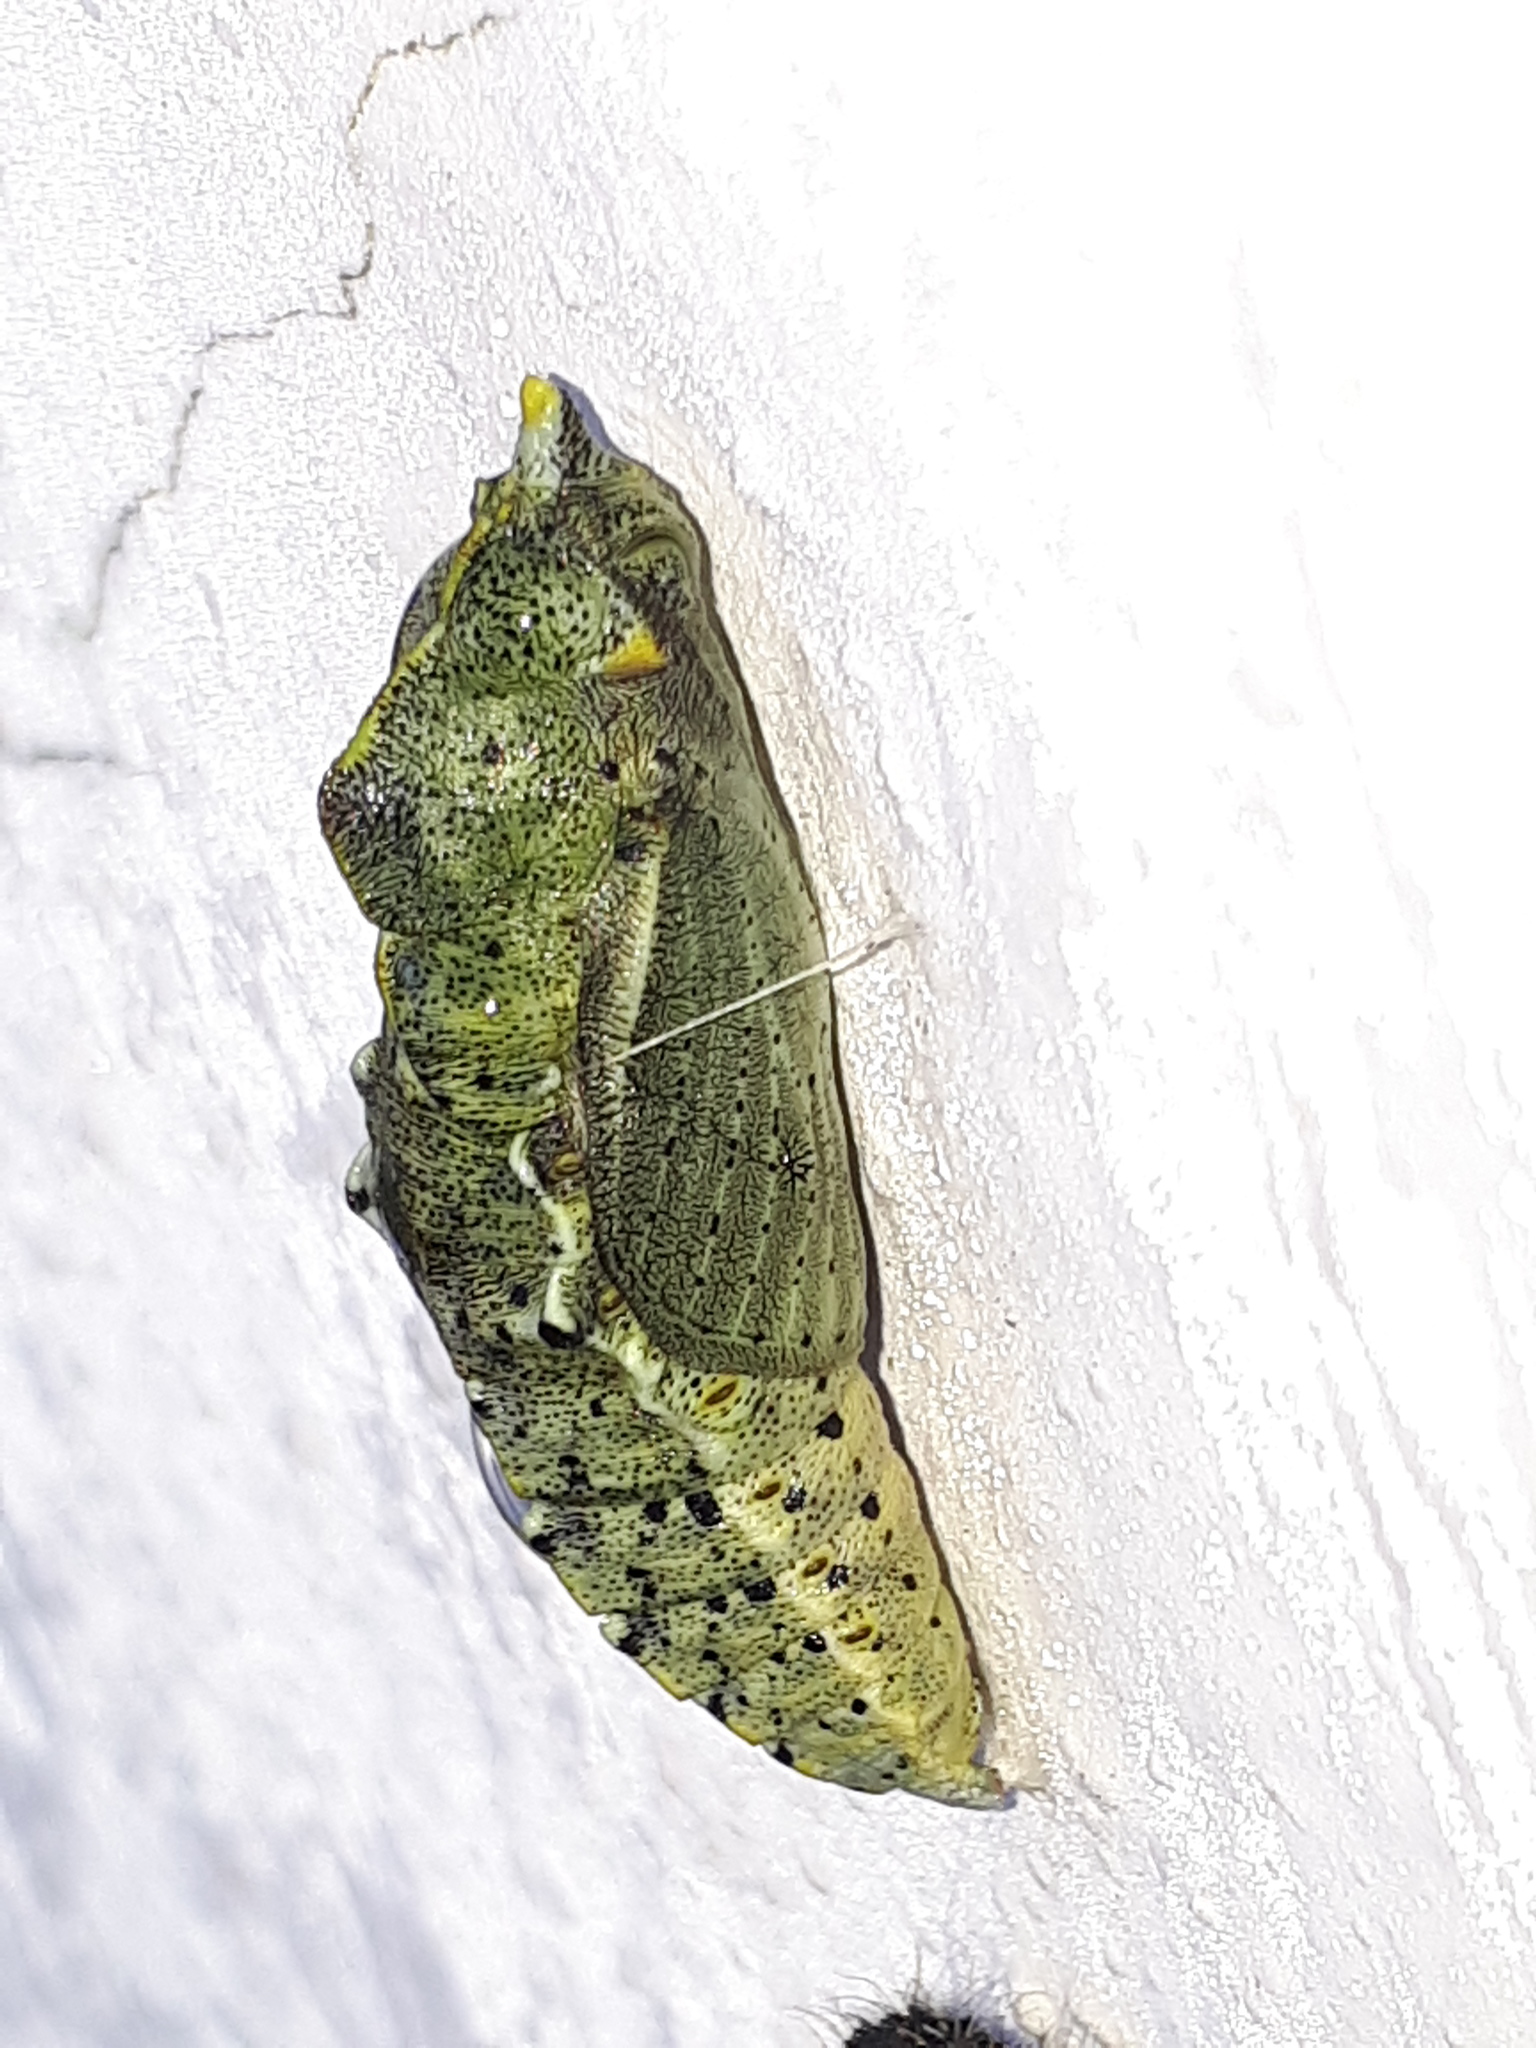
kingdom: Animalia
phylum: Arthropoda
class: Insecta
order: Lepidoptera
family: Pieridae
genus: Pieris
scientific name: Pieris brassicae
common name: Large white
